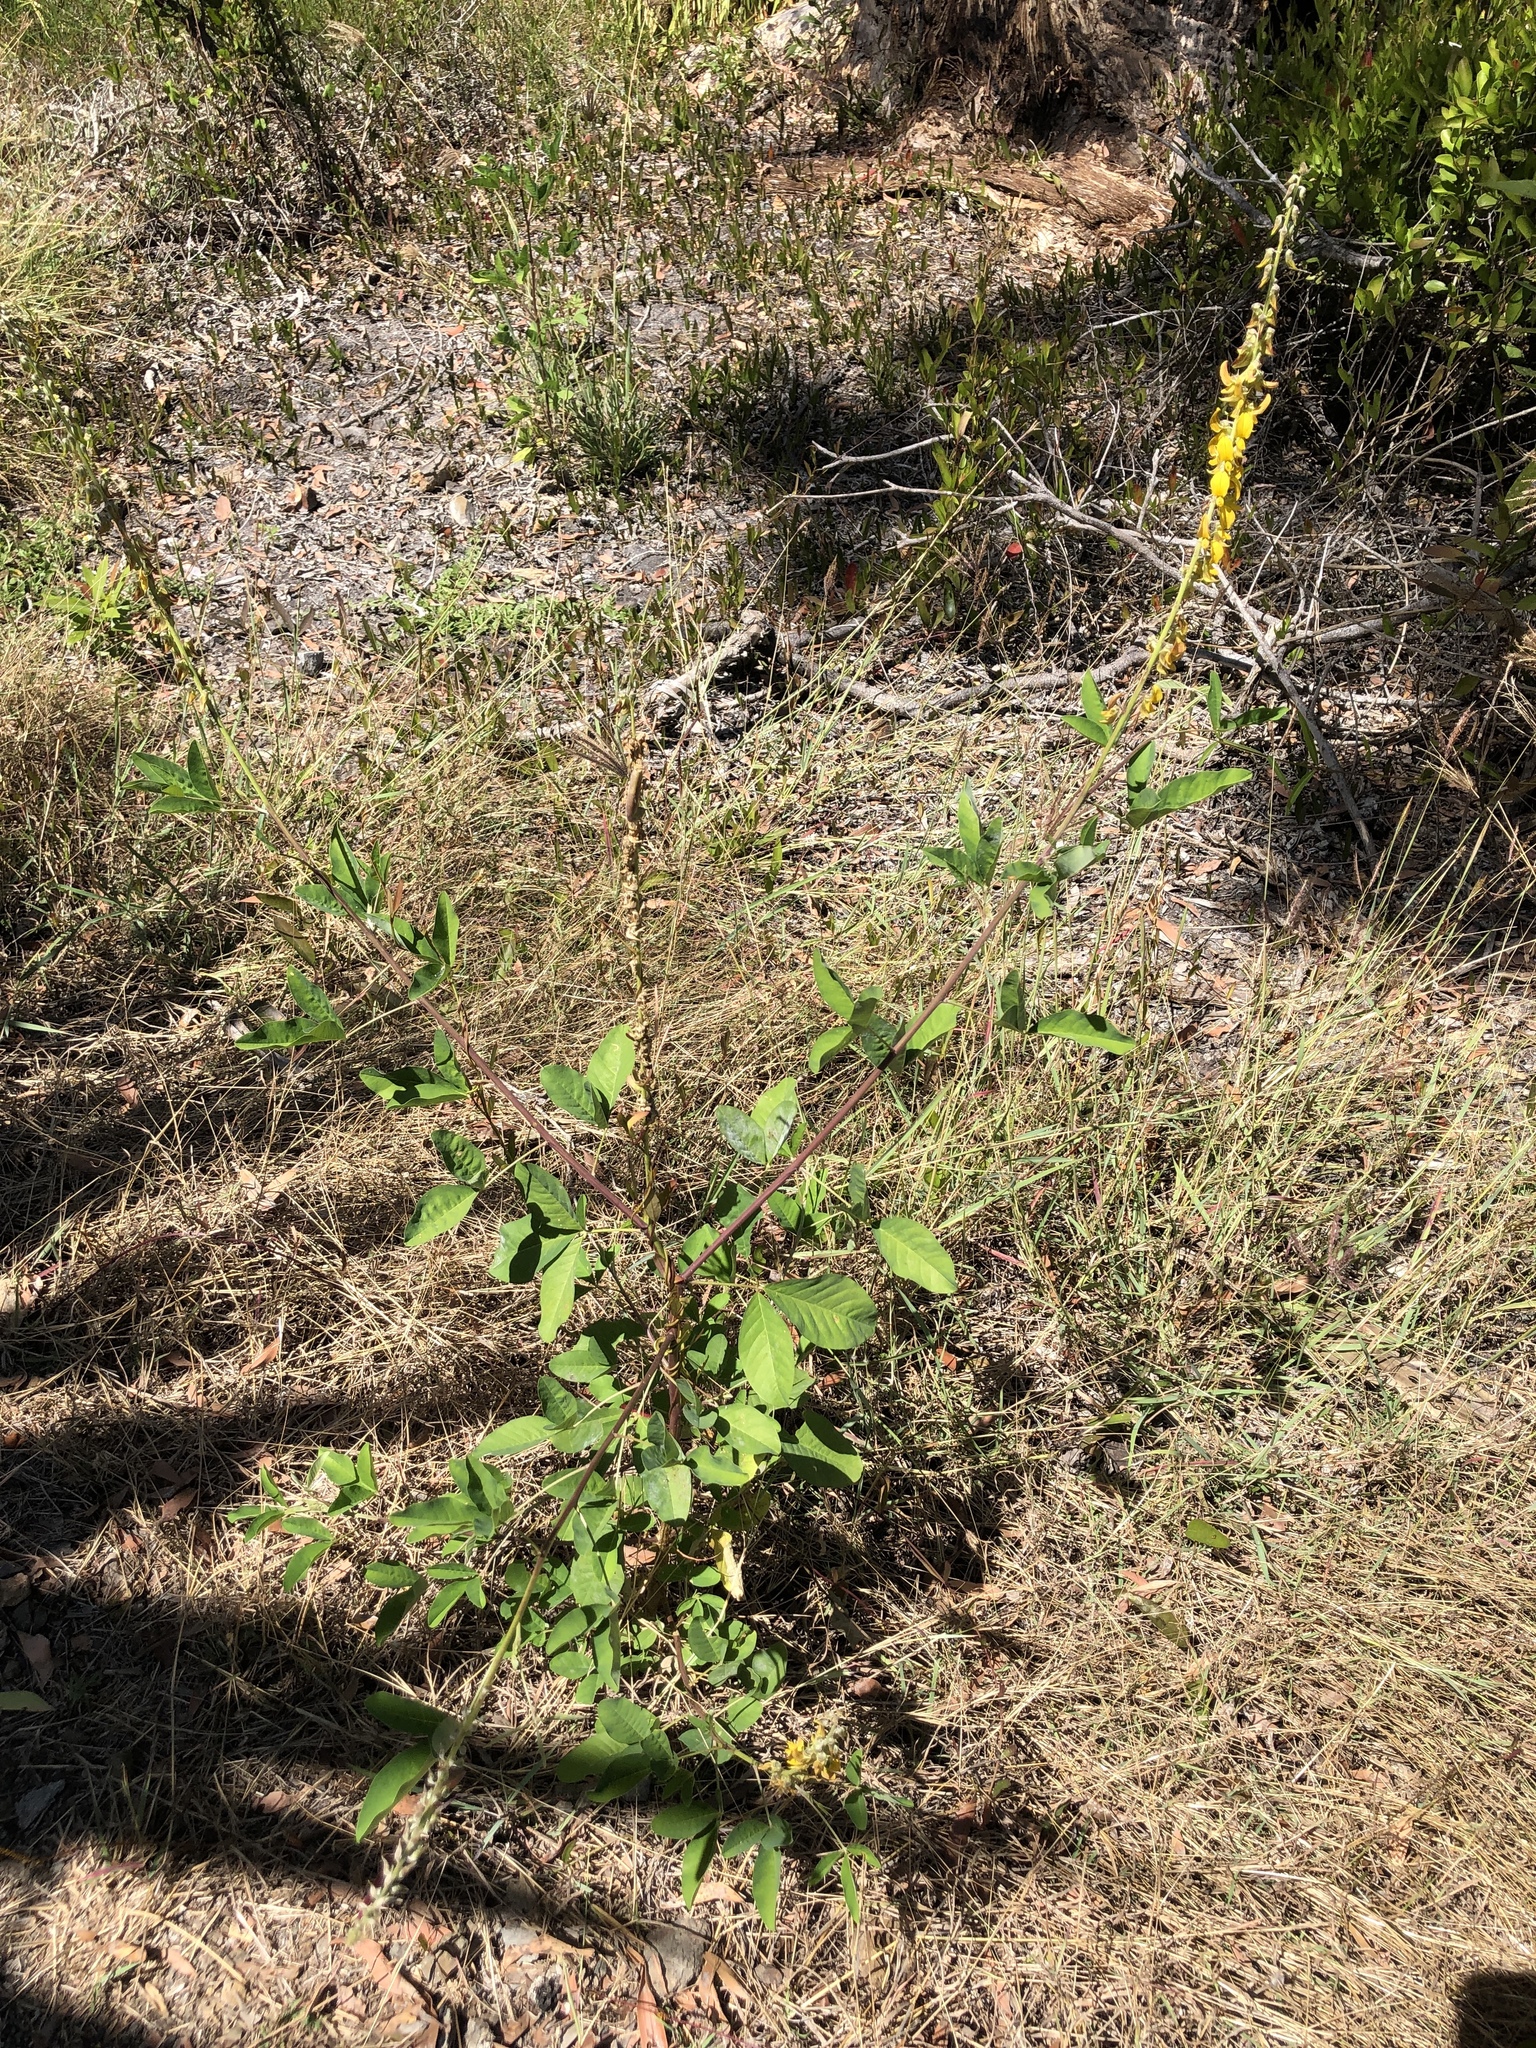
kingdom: Plantae
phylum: Tracheophyta
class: Magnoliopsida
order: Fabales
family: Fabaceae
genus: Crotalaria
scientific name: Crotalaria pallida
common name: Smooth rattlebox
